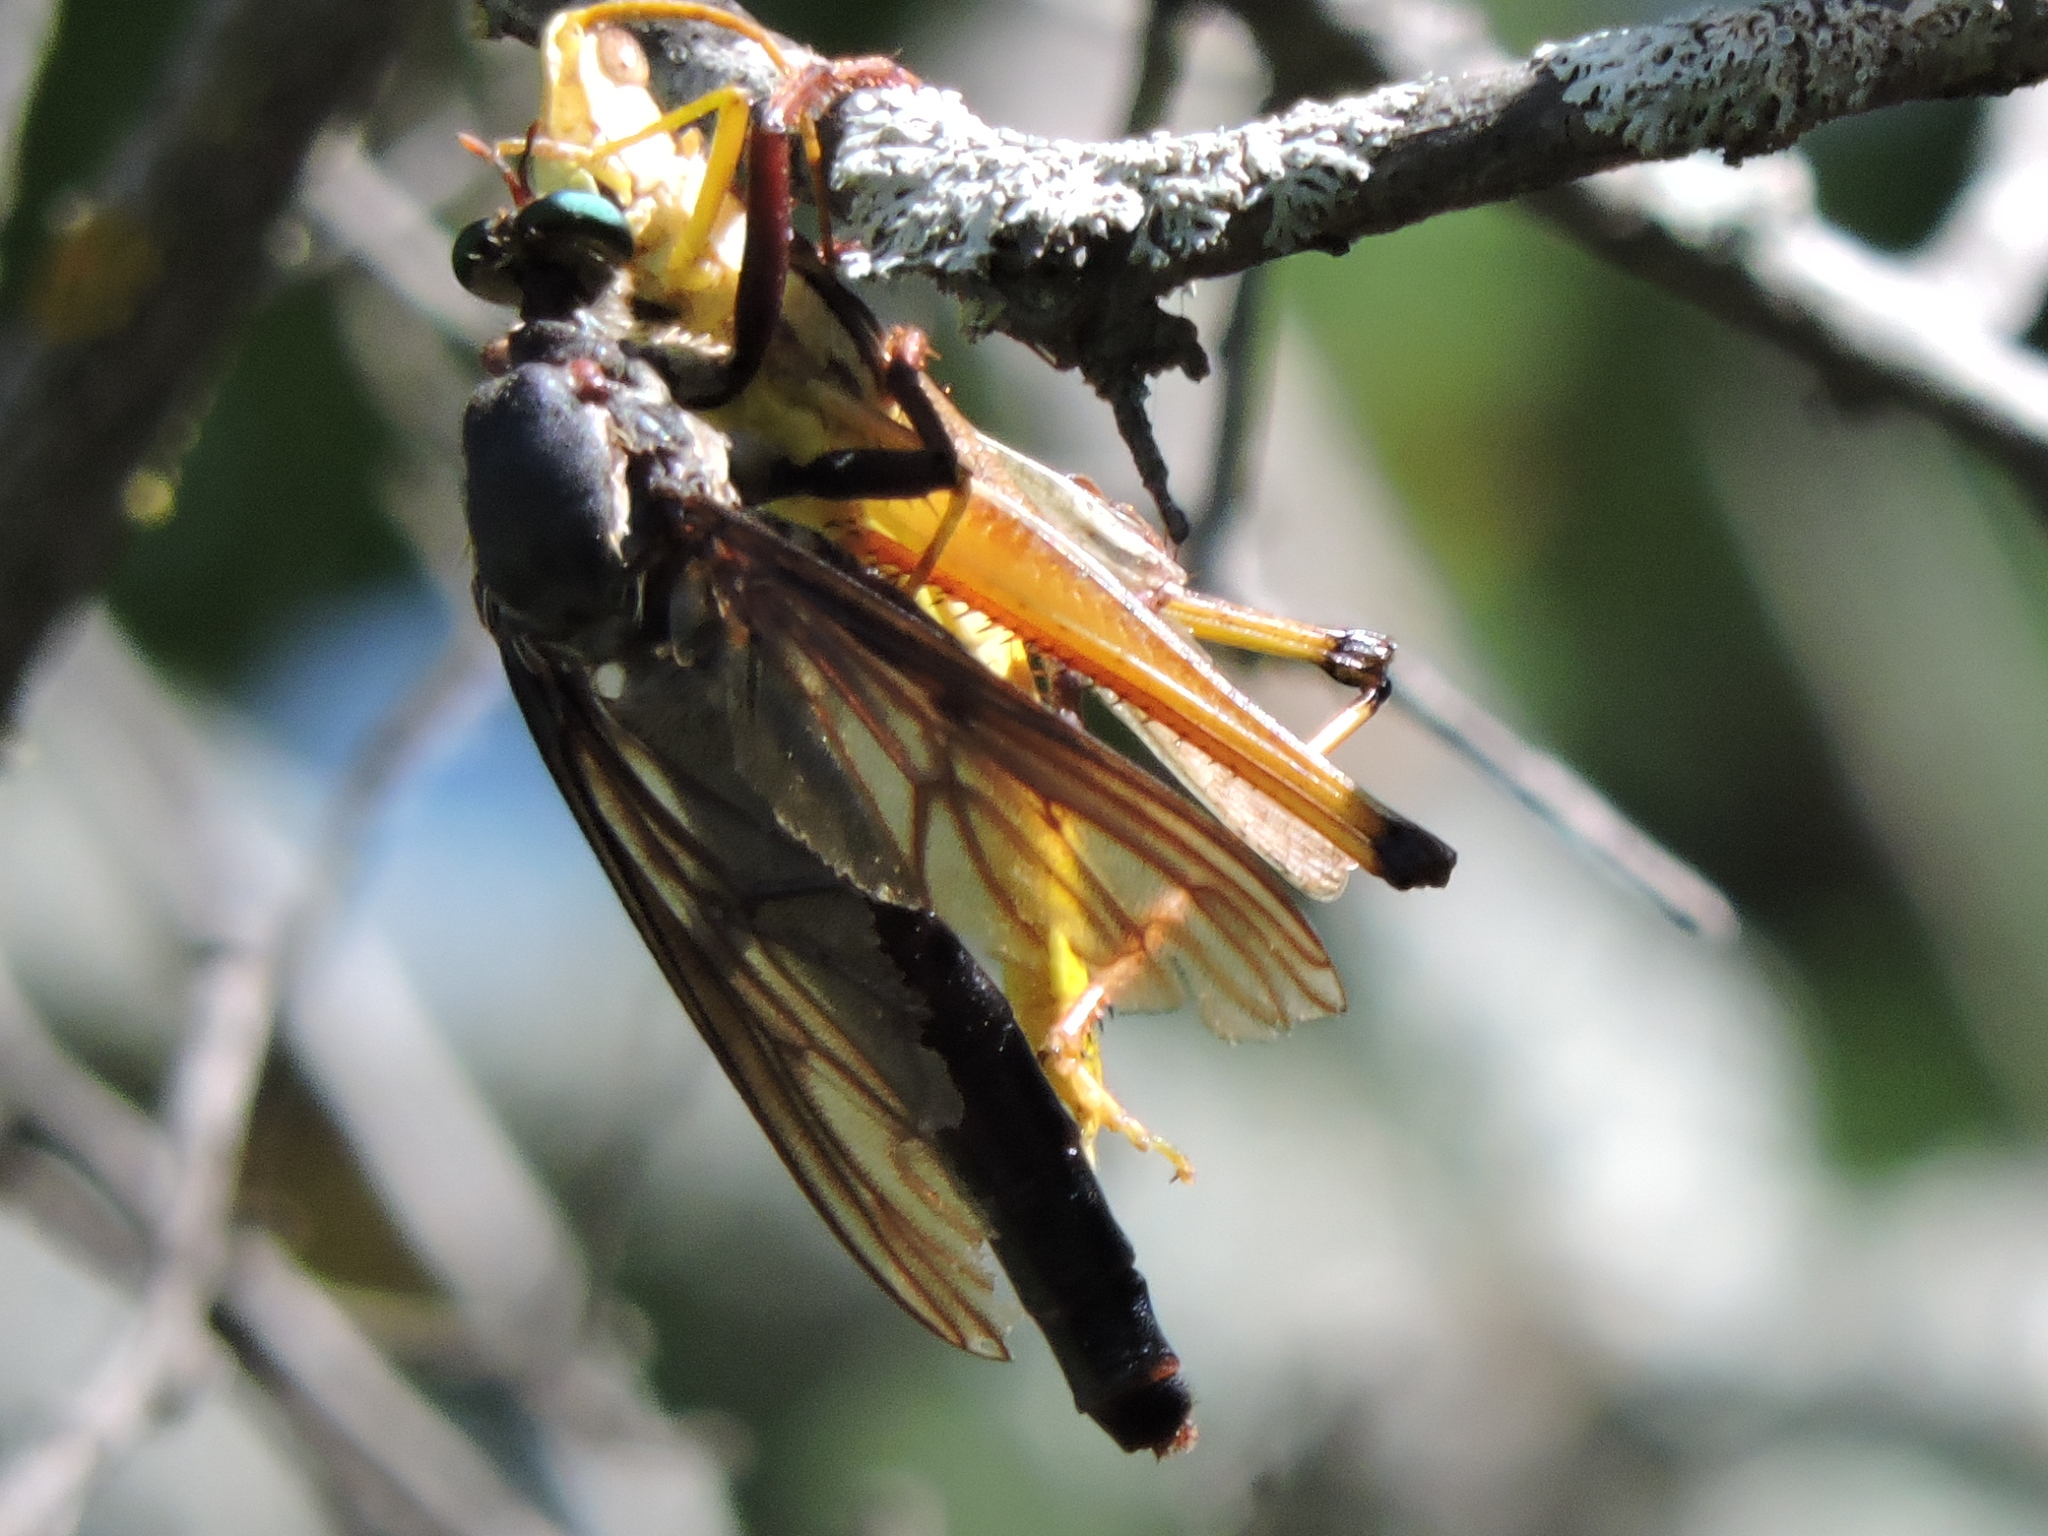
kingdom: Animalia
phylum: Arthropoda
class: Insecta
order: Diptera
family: Asilidae
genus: Microstylum
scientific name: Microstylum morosum
